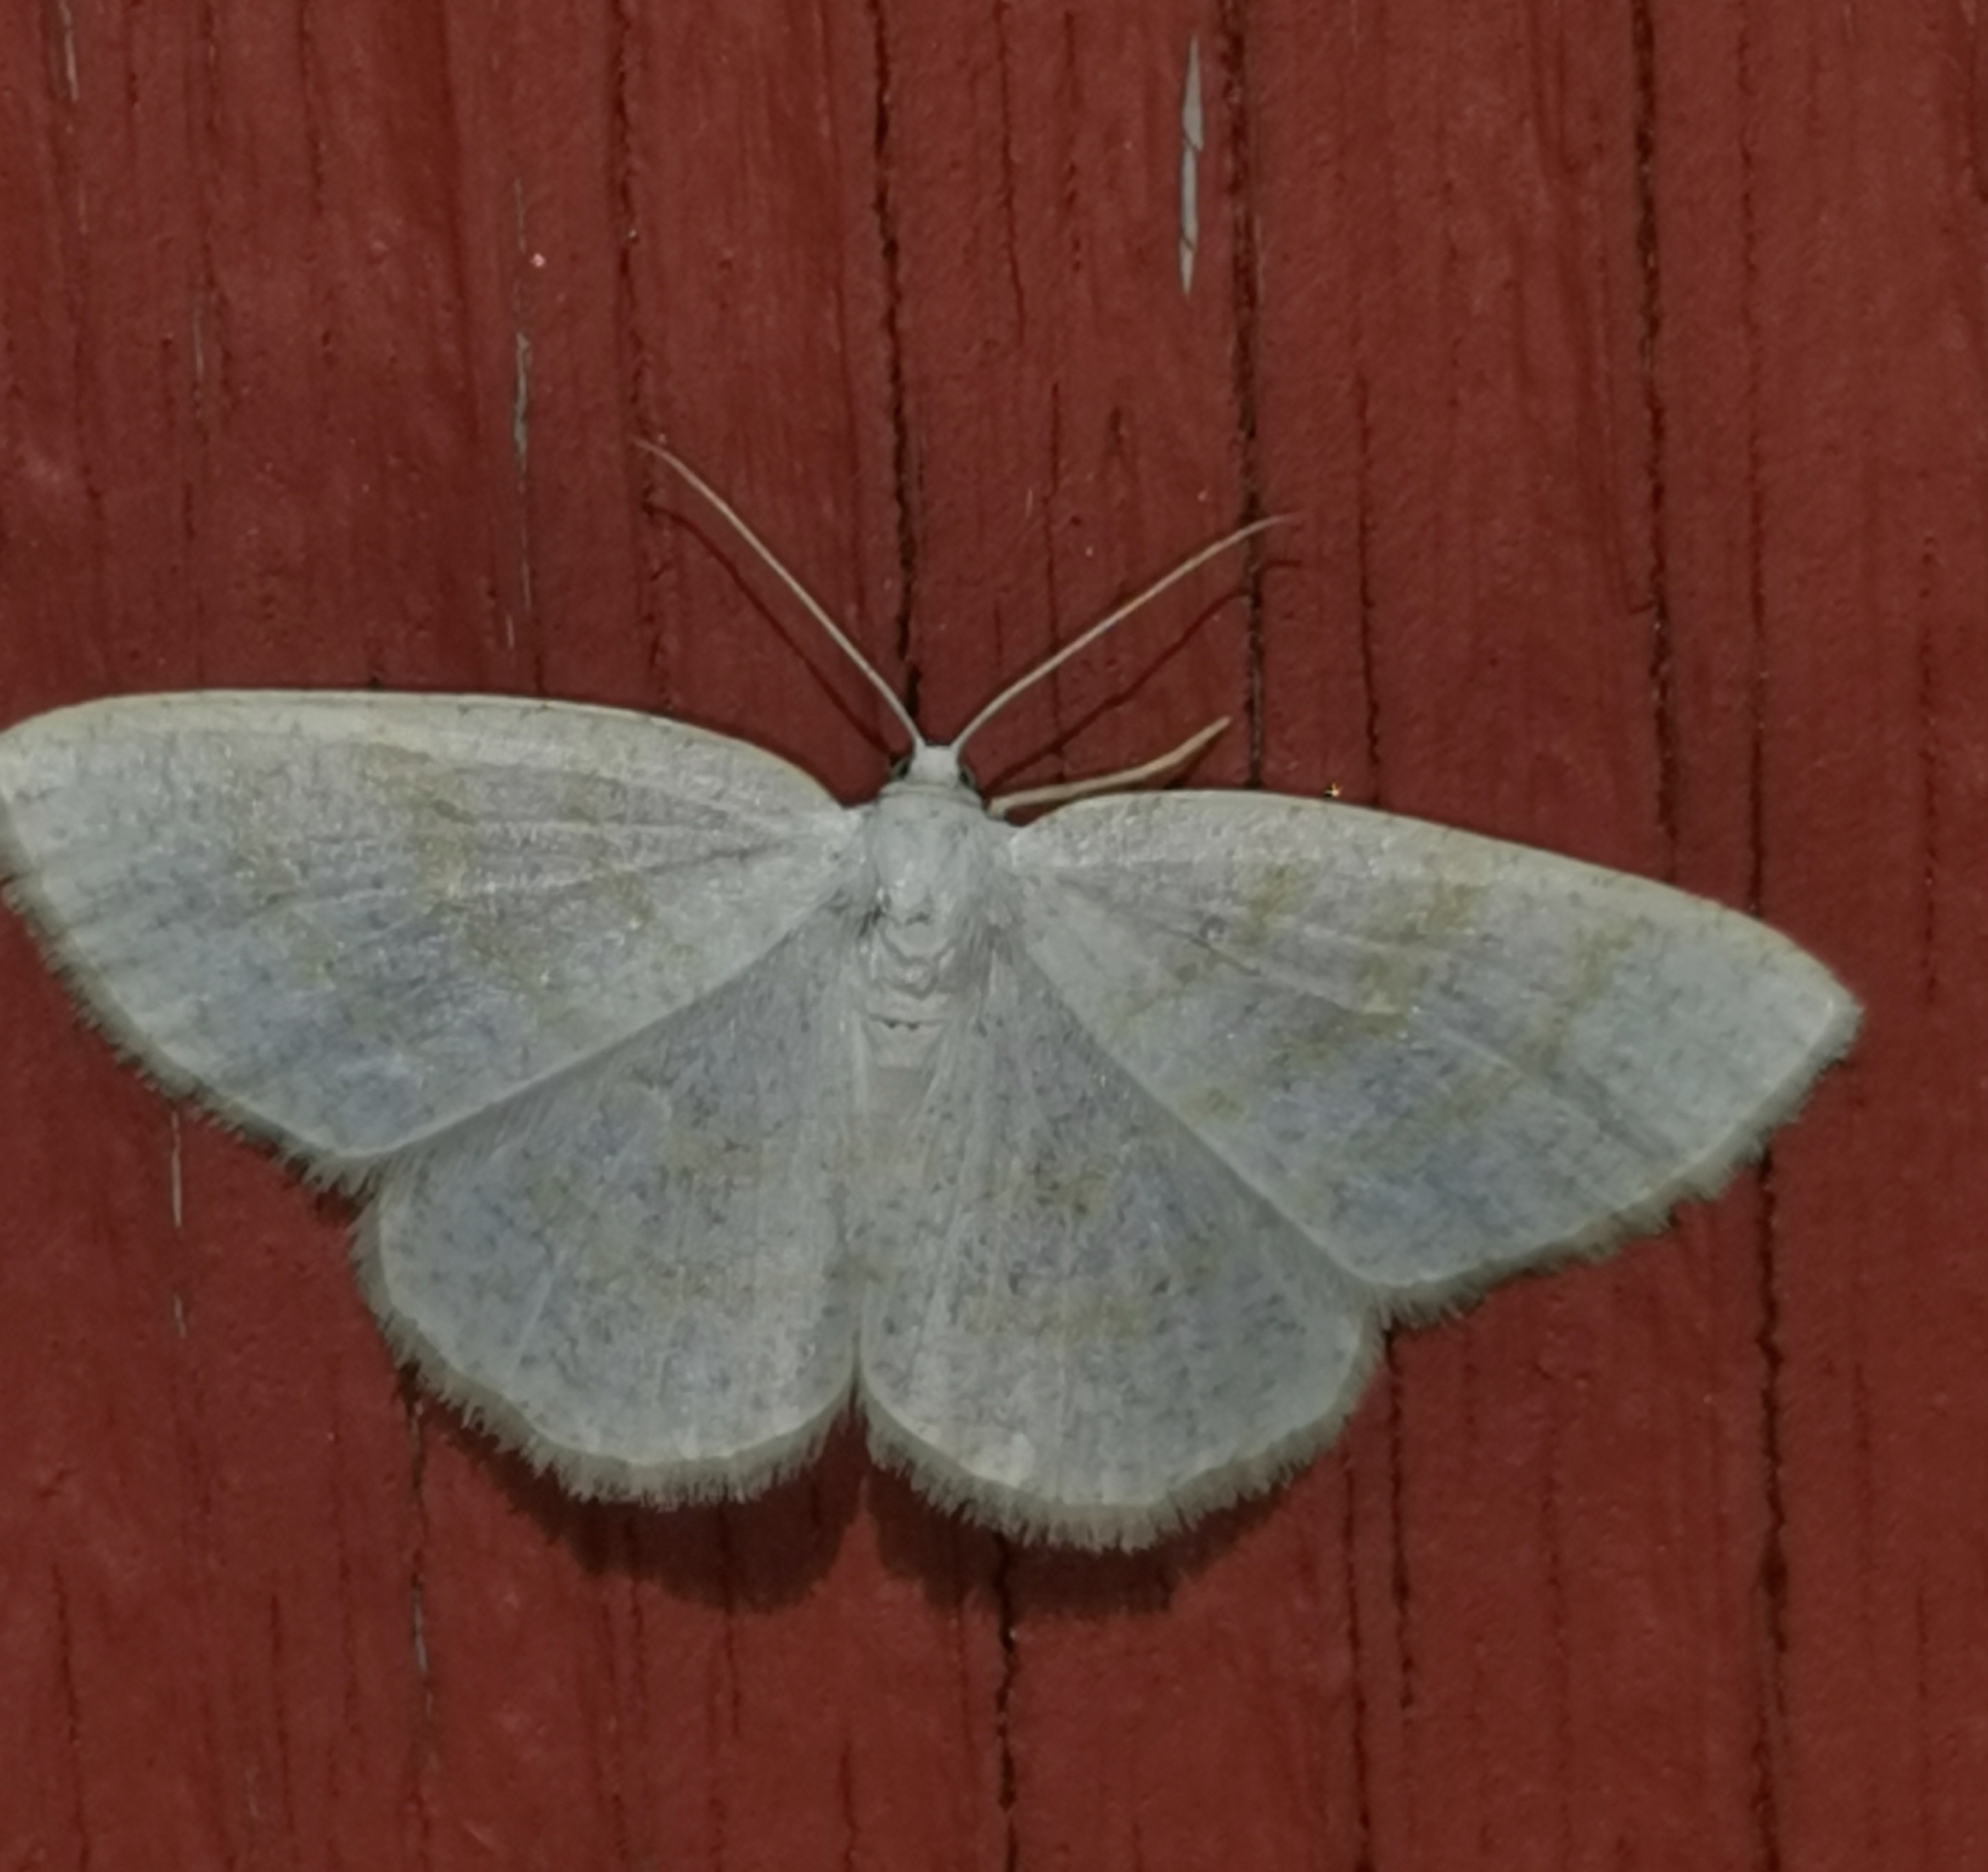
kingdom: Animalia
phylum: Arthropoda
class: Insecta
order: Lepidoptera
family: Geometridae
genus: Cabera
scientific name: Cabera exanthemata
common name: Common wave
